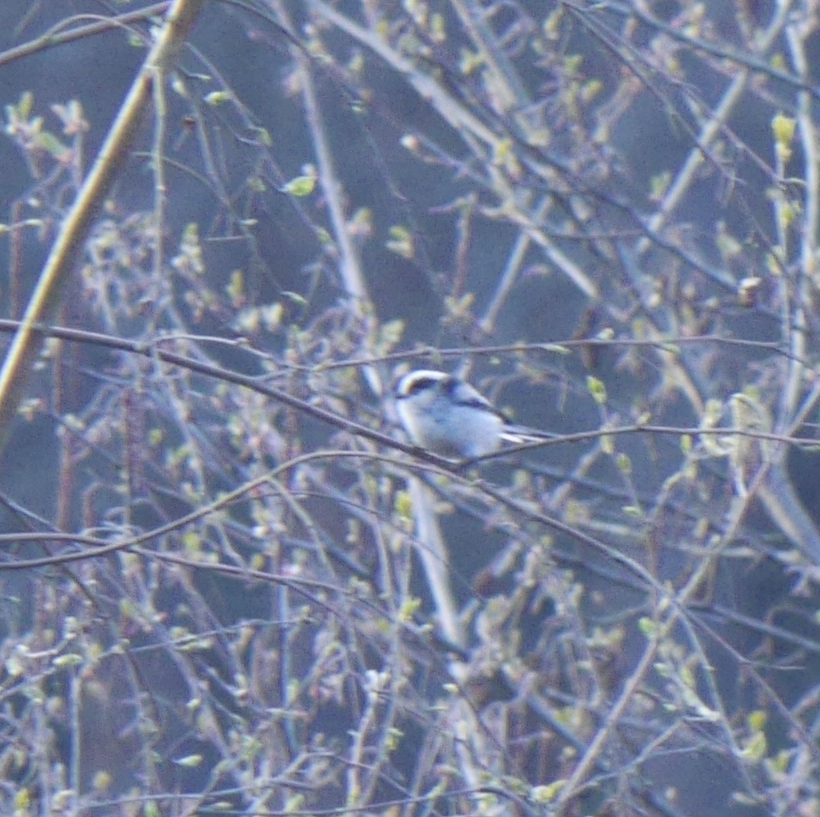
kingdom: Animalia
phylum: Chordata
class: Aves
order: Passeriformes
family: Aegithalidae
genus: Aegithalos
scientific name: Aegithalos caudatus
